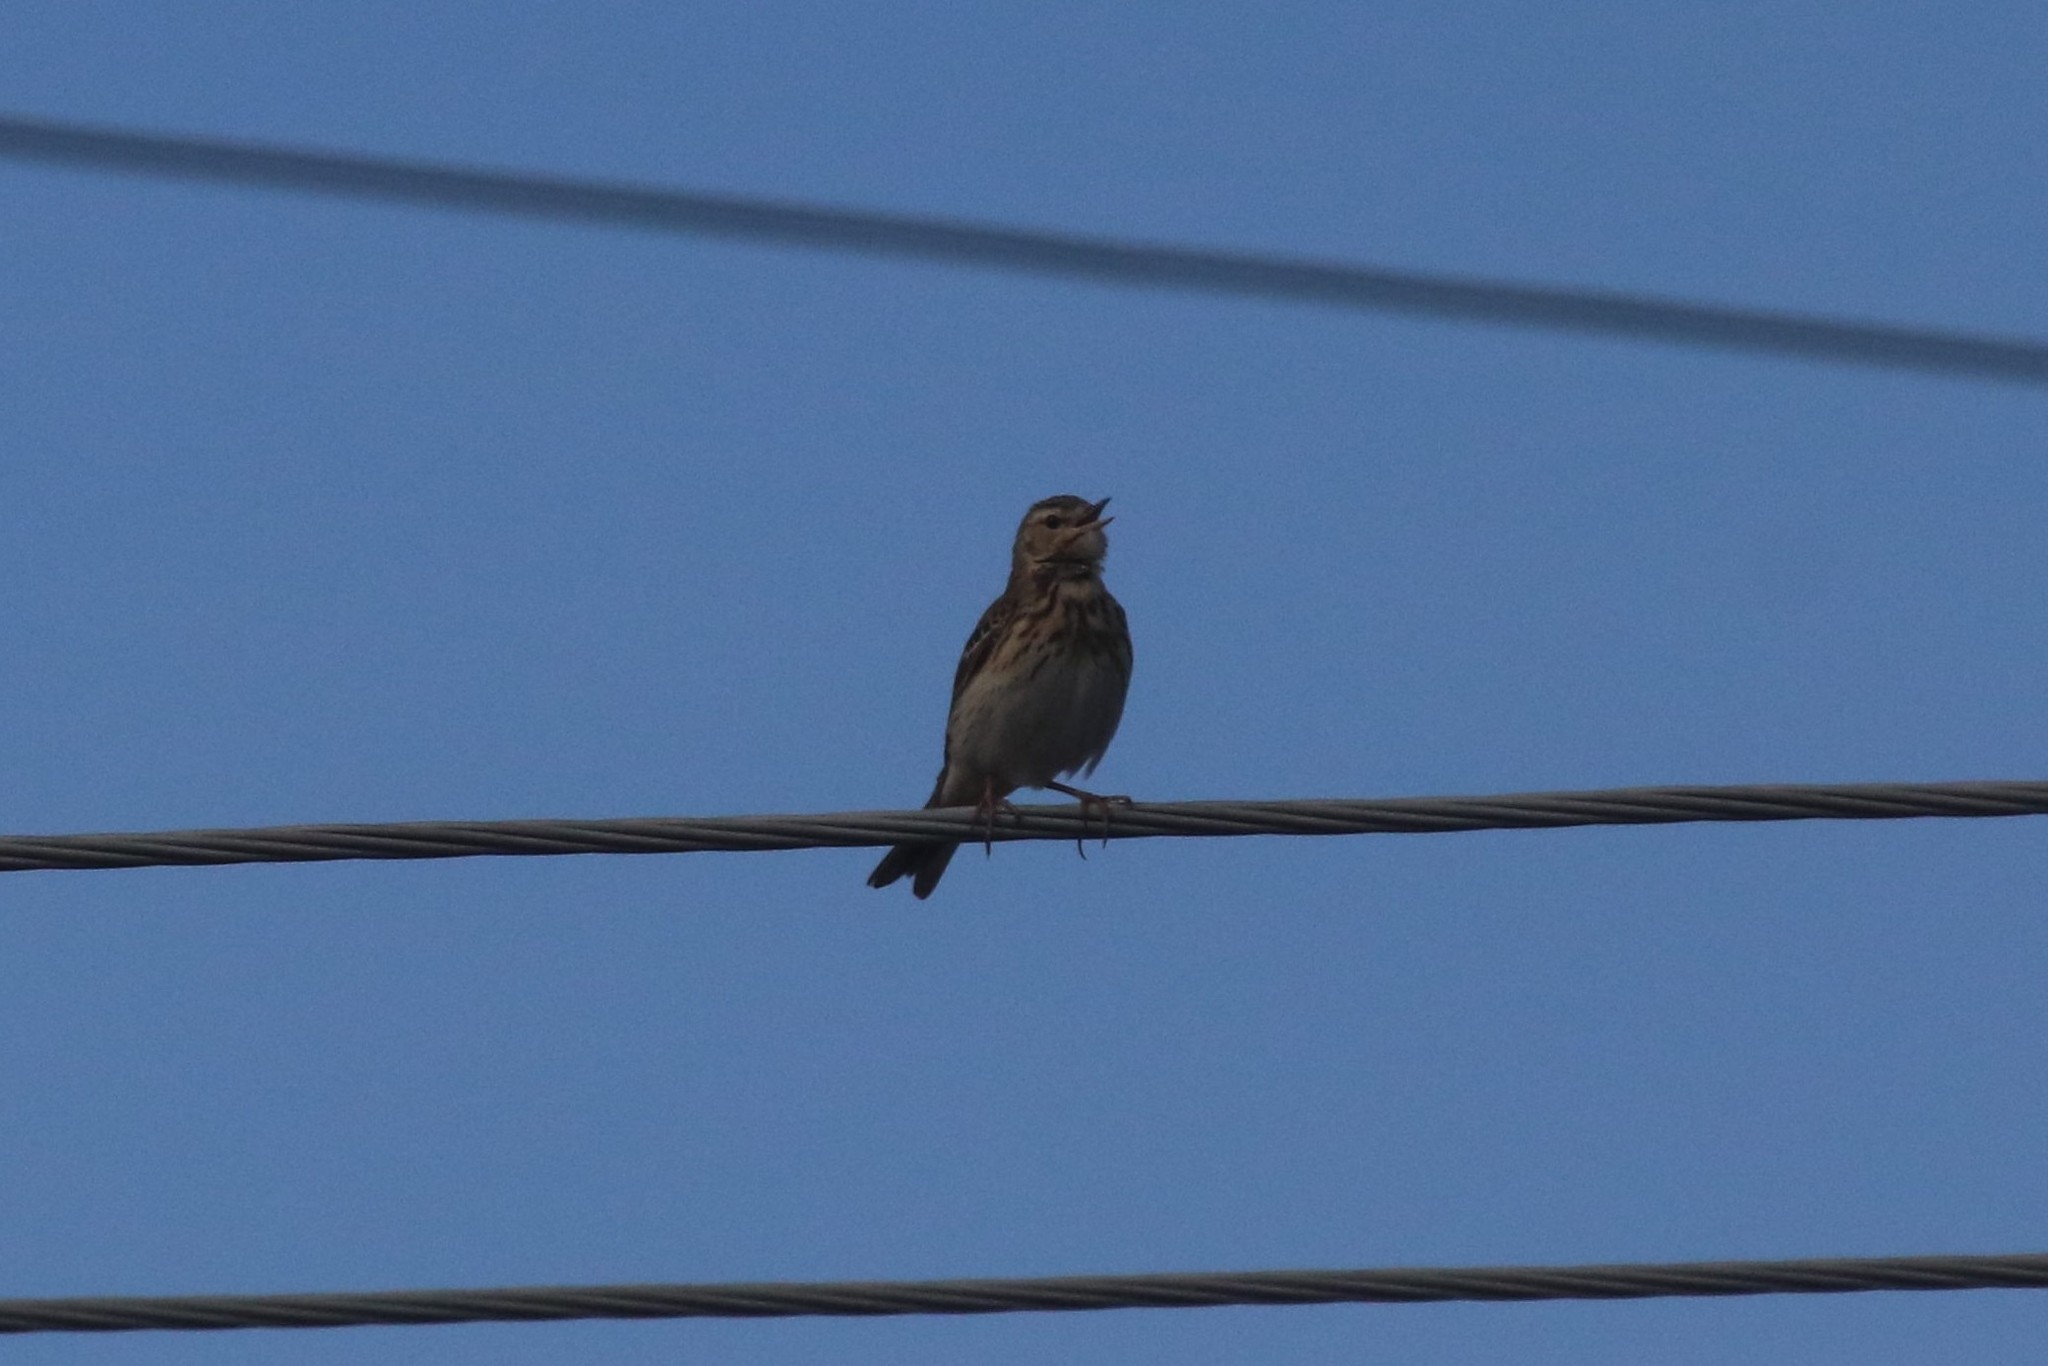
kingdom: Animalia
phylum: Chordata
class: Aves
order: Passeriformes
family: Motacillidae
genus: Anthus
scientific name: Anthus trivialis
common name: Tree pipit
